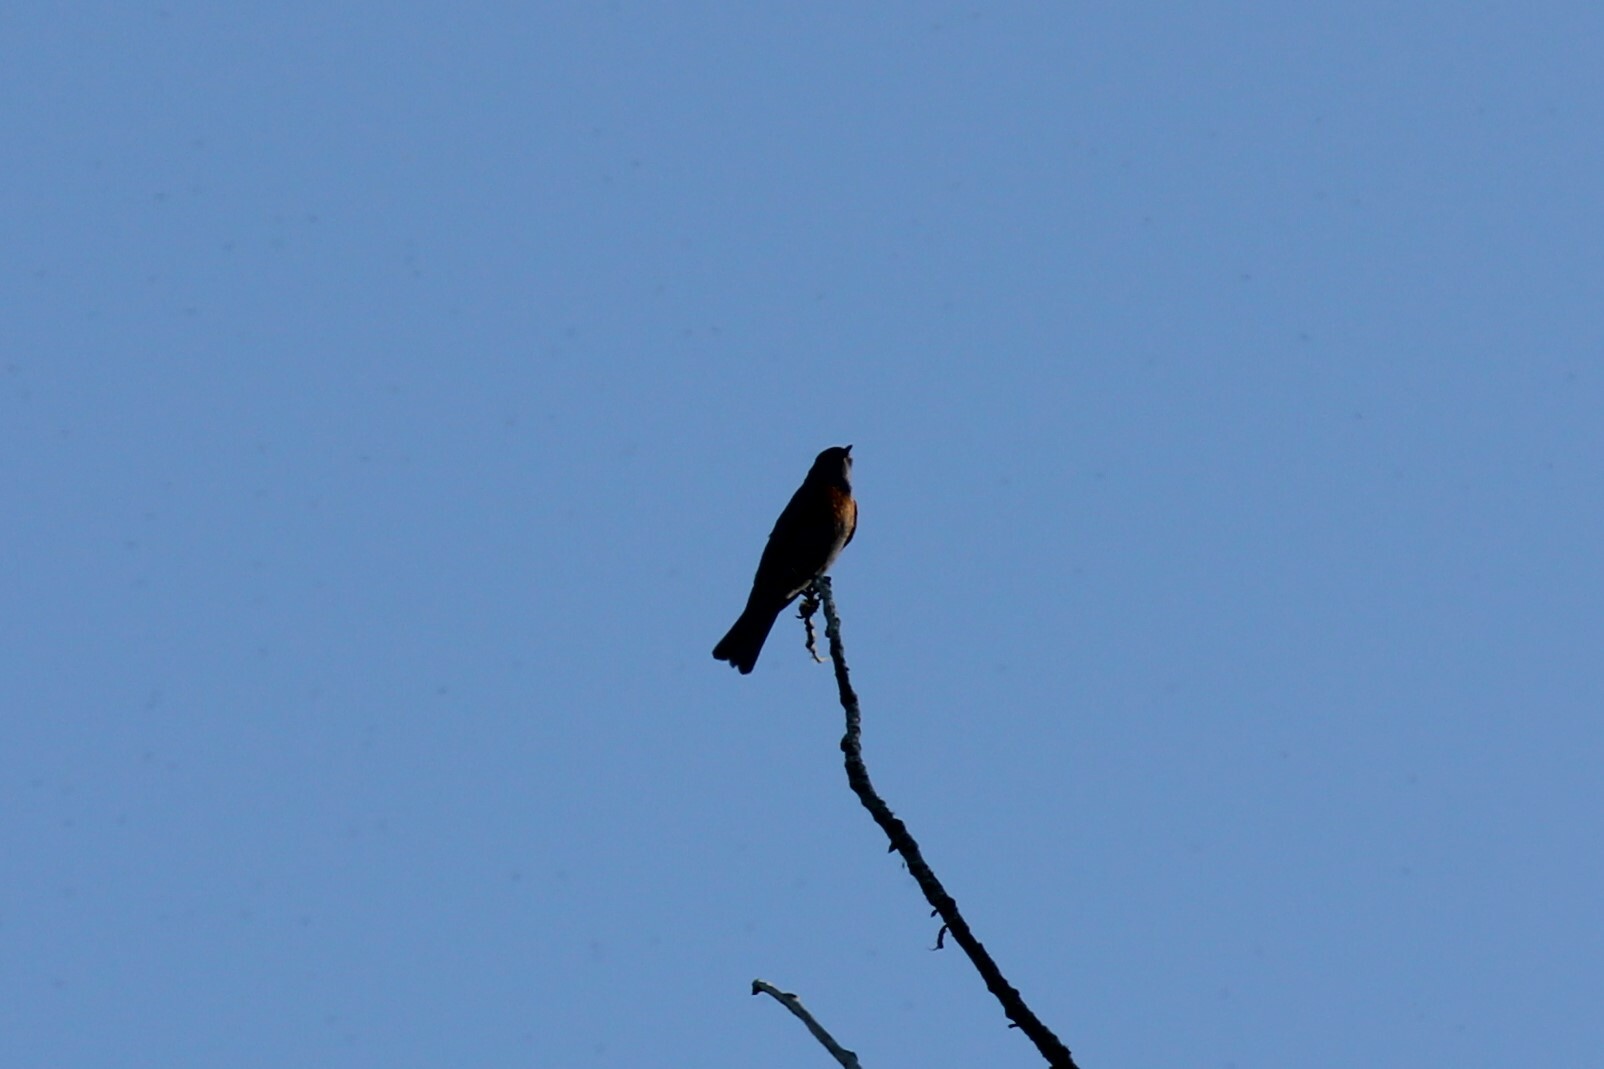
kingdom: Animalia
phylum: Chordata
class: Aves
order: Passeriformes
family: Turdidae
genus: Turdus
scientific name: Turdus migratorius
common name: American robin
